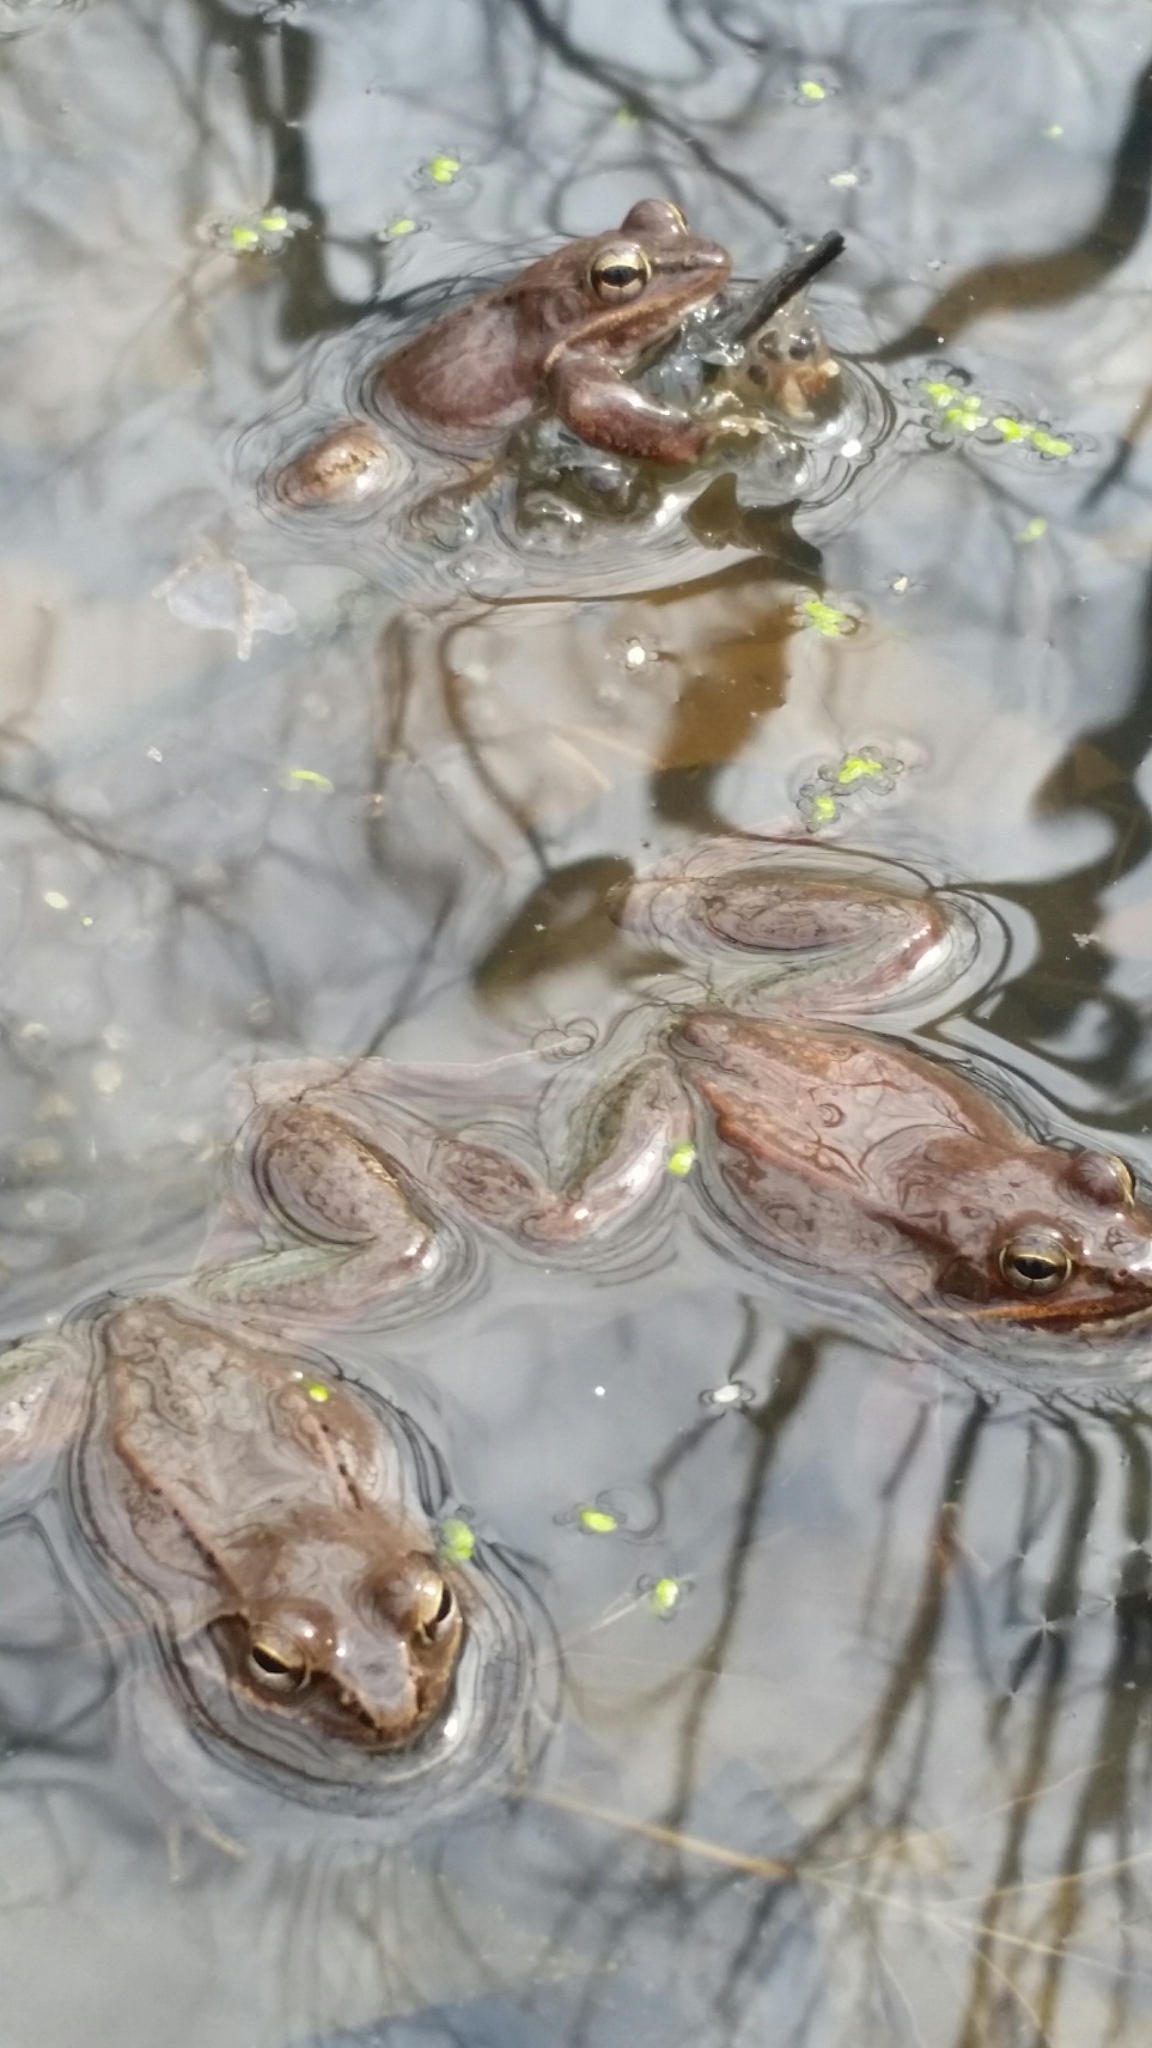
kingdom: Animalia
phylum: Chordata
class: Amphibia
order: Anura
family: Ranidae
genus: Lithobates
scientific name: Lithobates sylvaticus
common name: Wood frog
